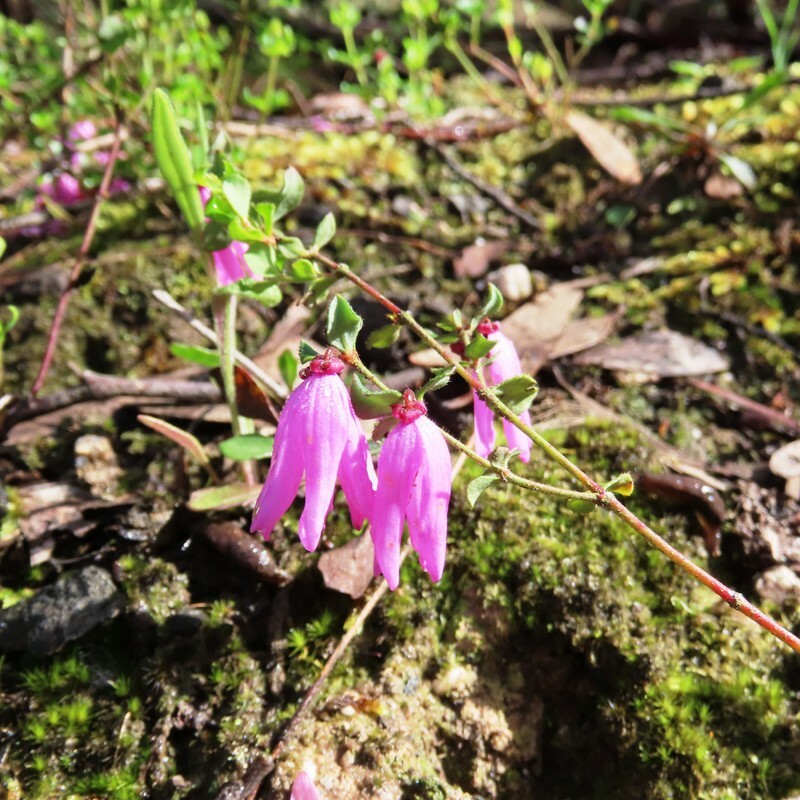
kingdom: Plantae
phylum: Tracheophyta
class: Magnoliopsida
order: Oxalidales
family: Elaeocarpaceae
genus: Tetratheca
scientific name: Tetratheca ciliata
